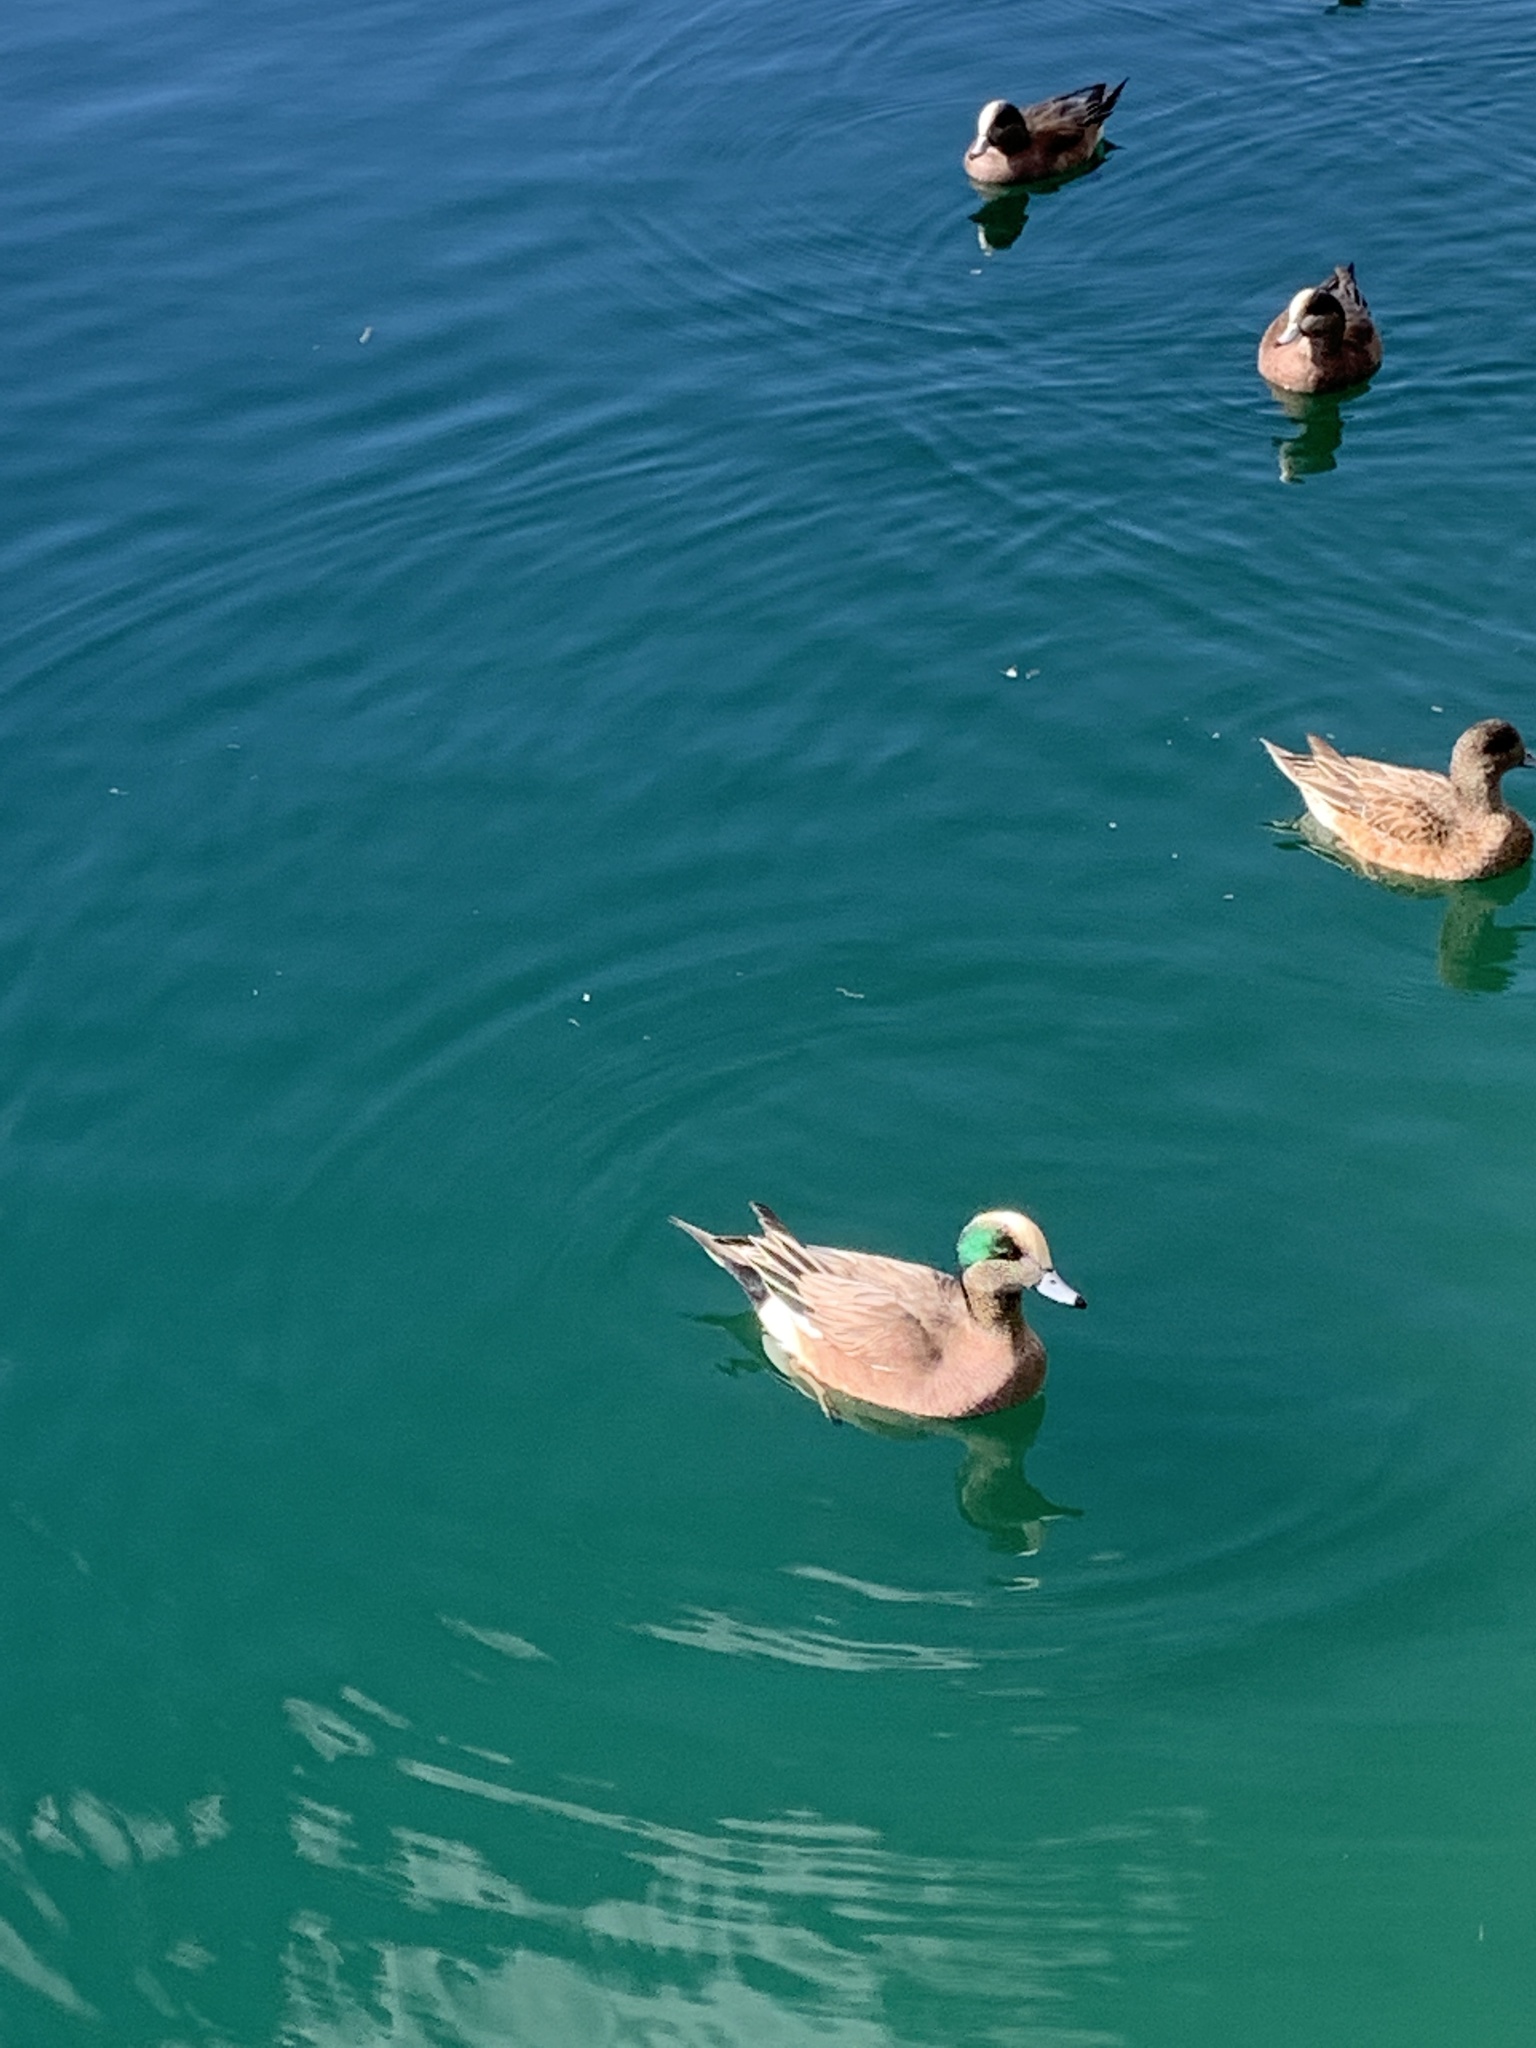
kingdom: Animalia
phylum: Chordata
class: Aves
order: Anseriformes
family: Anatidae
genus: Mareca
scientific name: Mareca americana
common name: American wigeon
